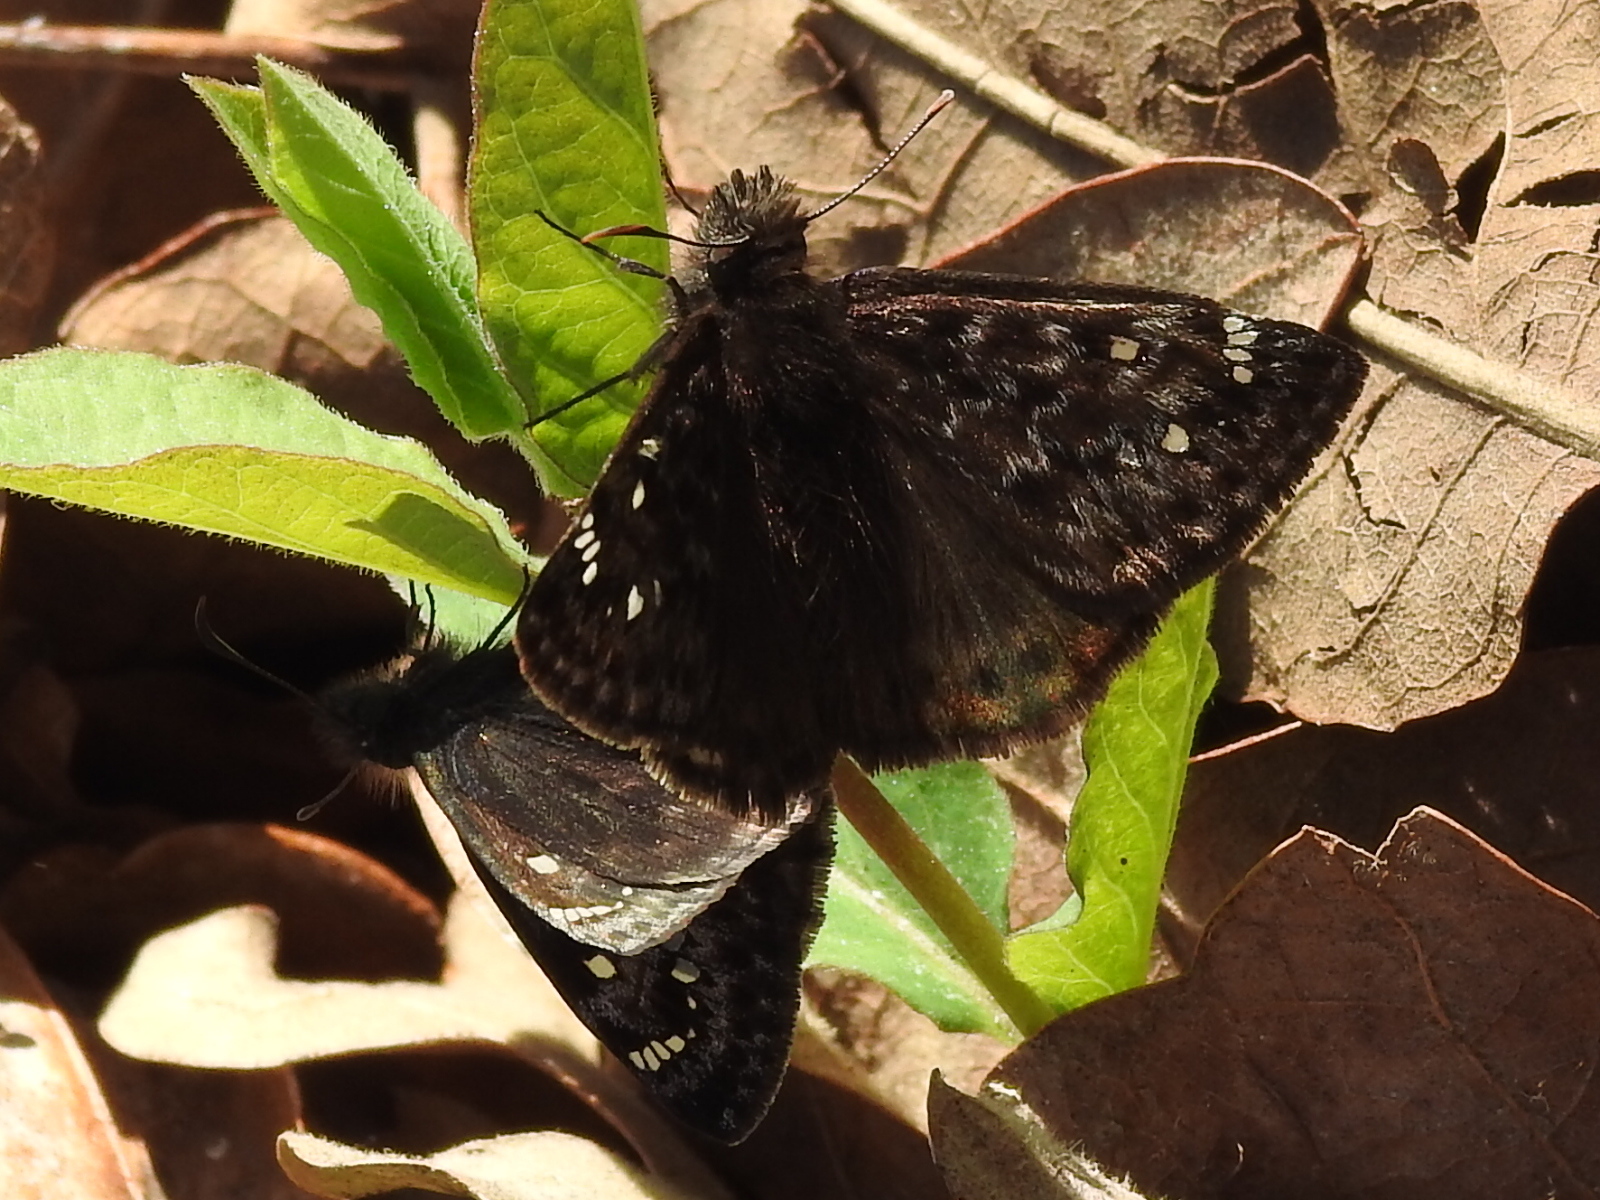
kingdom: Animalia
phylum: Arthropoda
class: Insecta
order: Lepidoptera
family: Hesperiidae
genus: Erynnis
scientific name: Erynnis juvenalis
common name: Juvenal's duskywing
